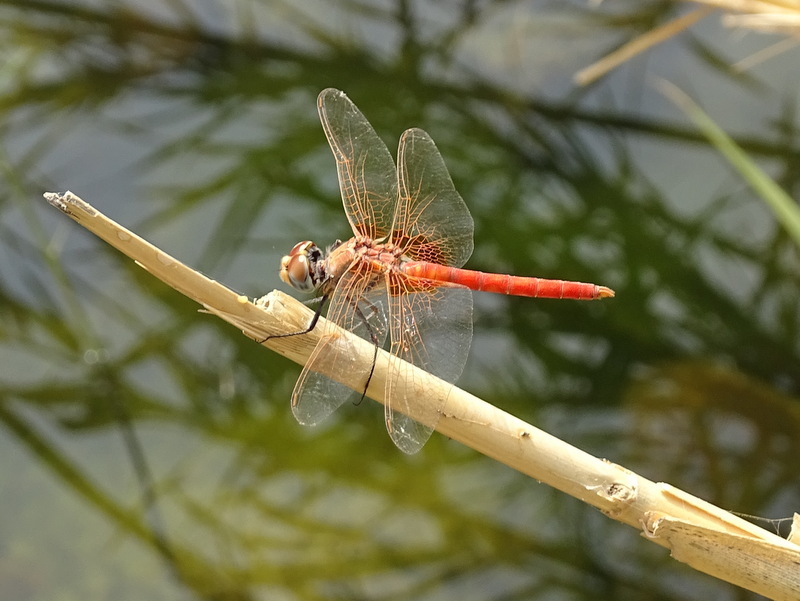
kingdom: Animalia
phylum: Arthropoda
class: Insecta
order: Odonata
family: Libellulidae
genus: Urothemis
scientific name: Urothemis thomasi
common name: Desert basker
